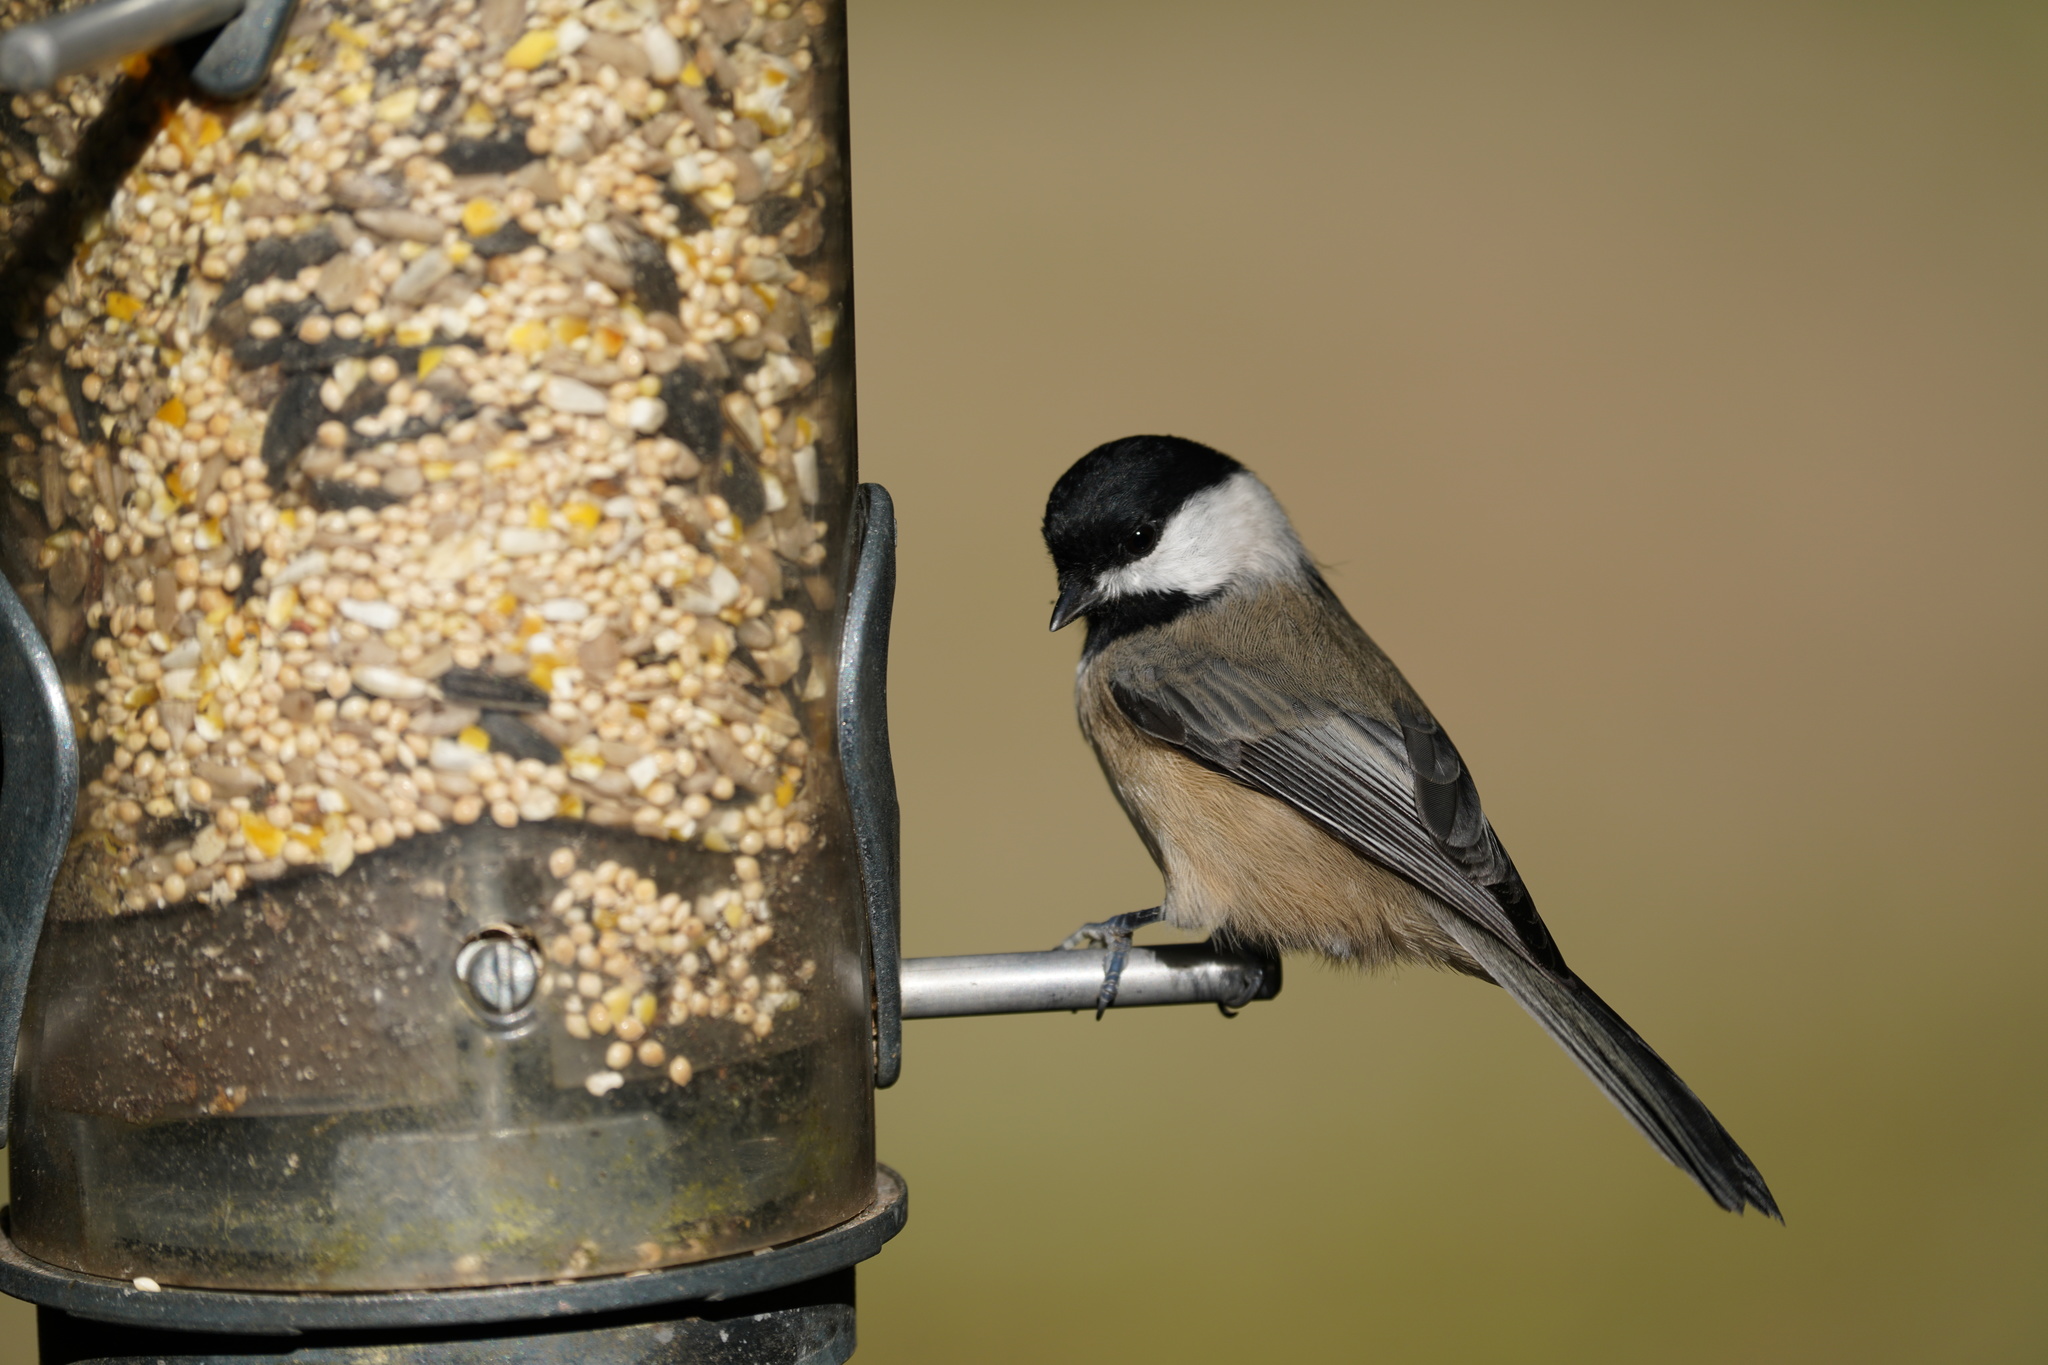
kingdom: Animalia
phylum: Chordata
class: Aves
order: Passeriformes
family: Paridae
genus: Poecile
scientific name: Poecile carolinensis
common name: Carolina chickadee
